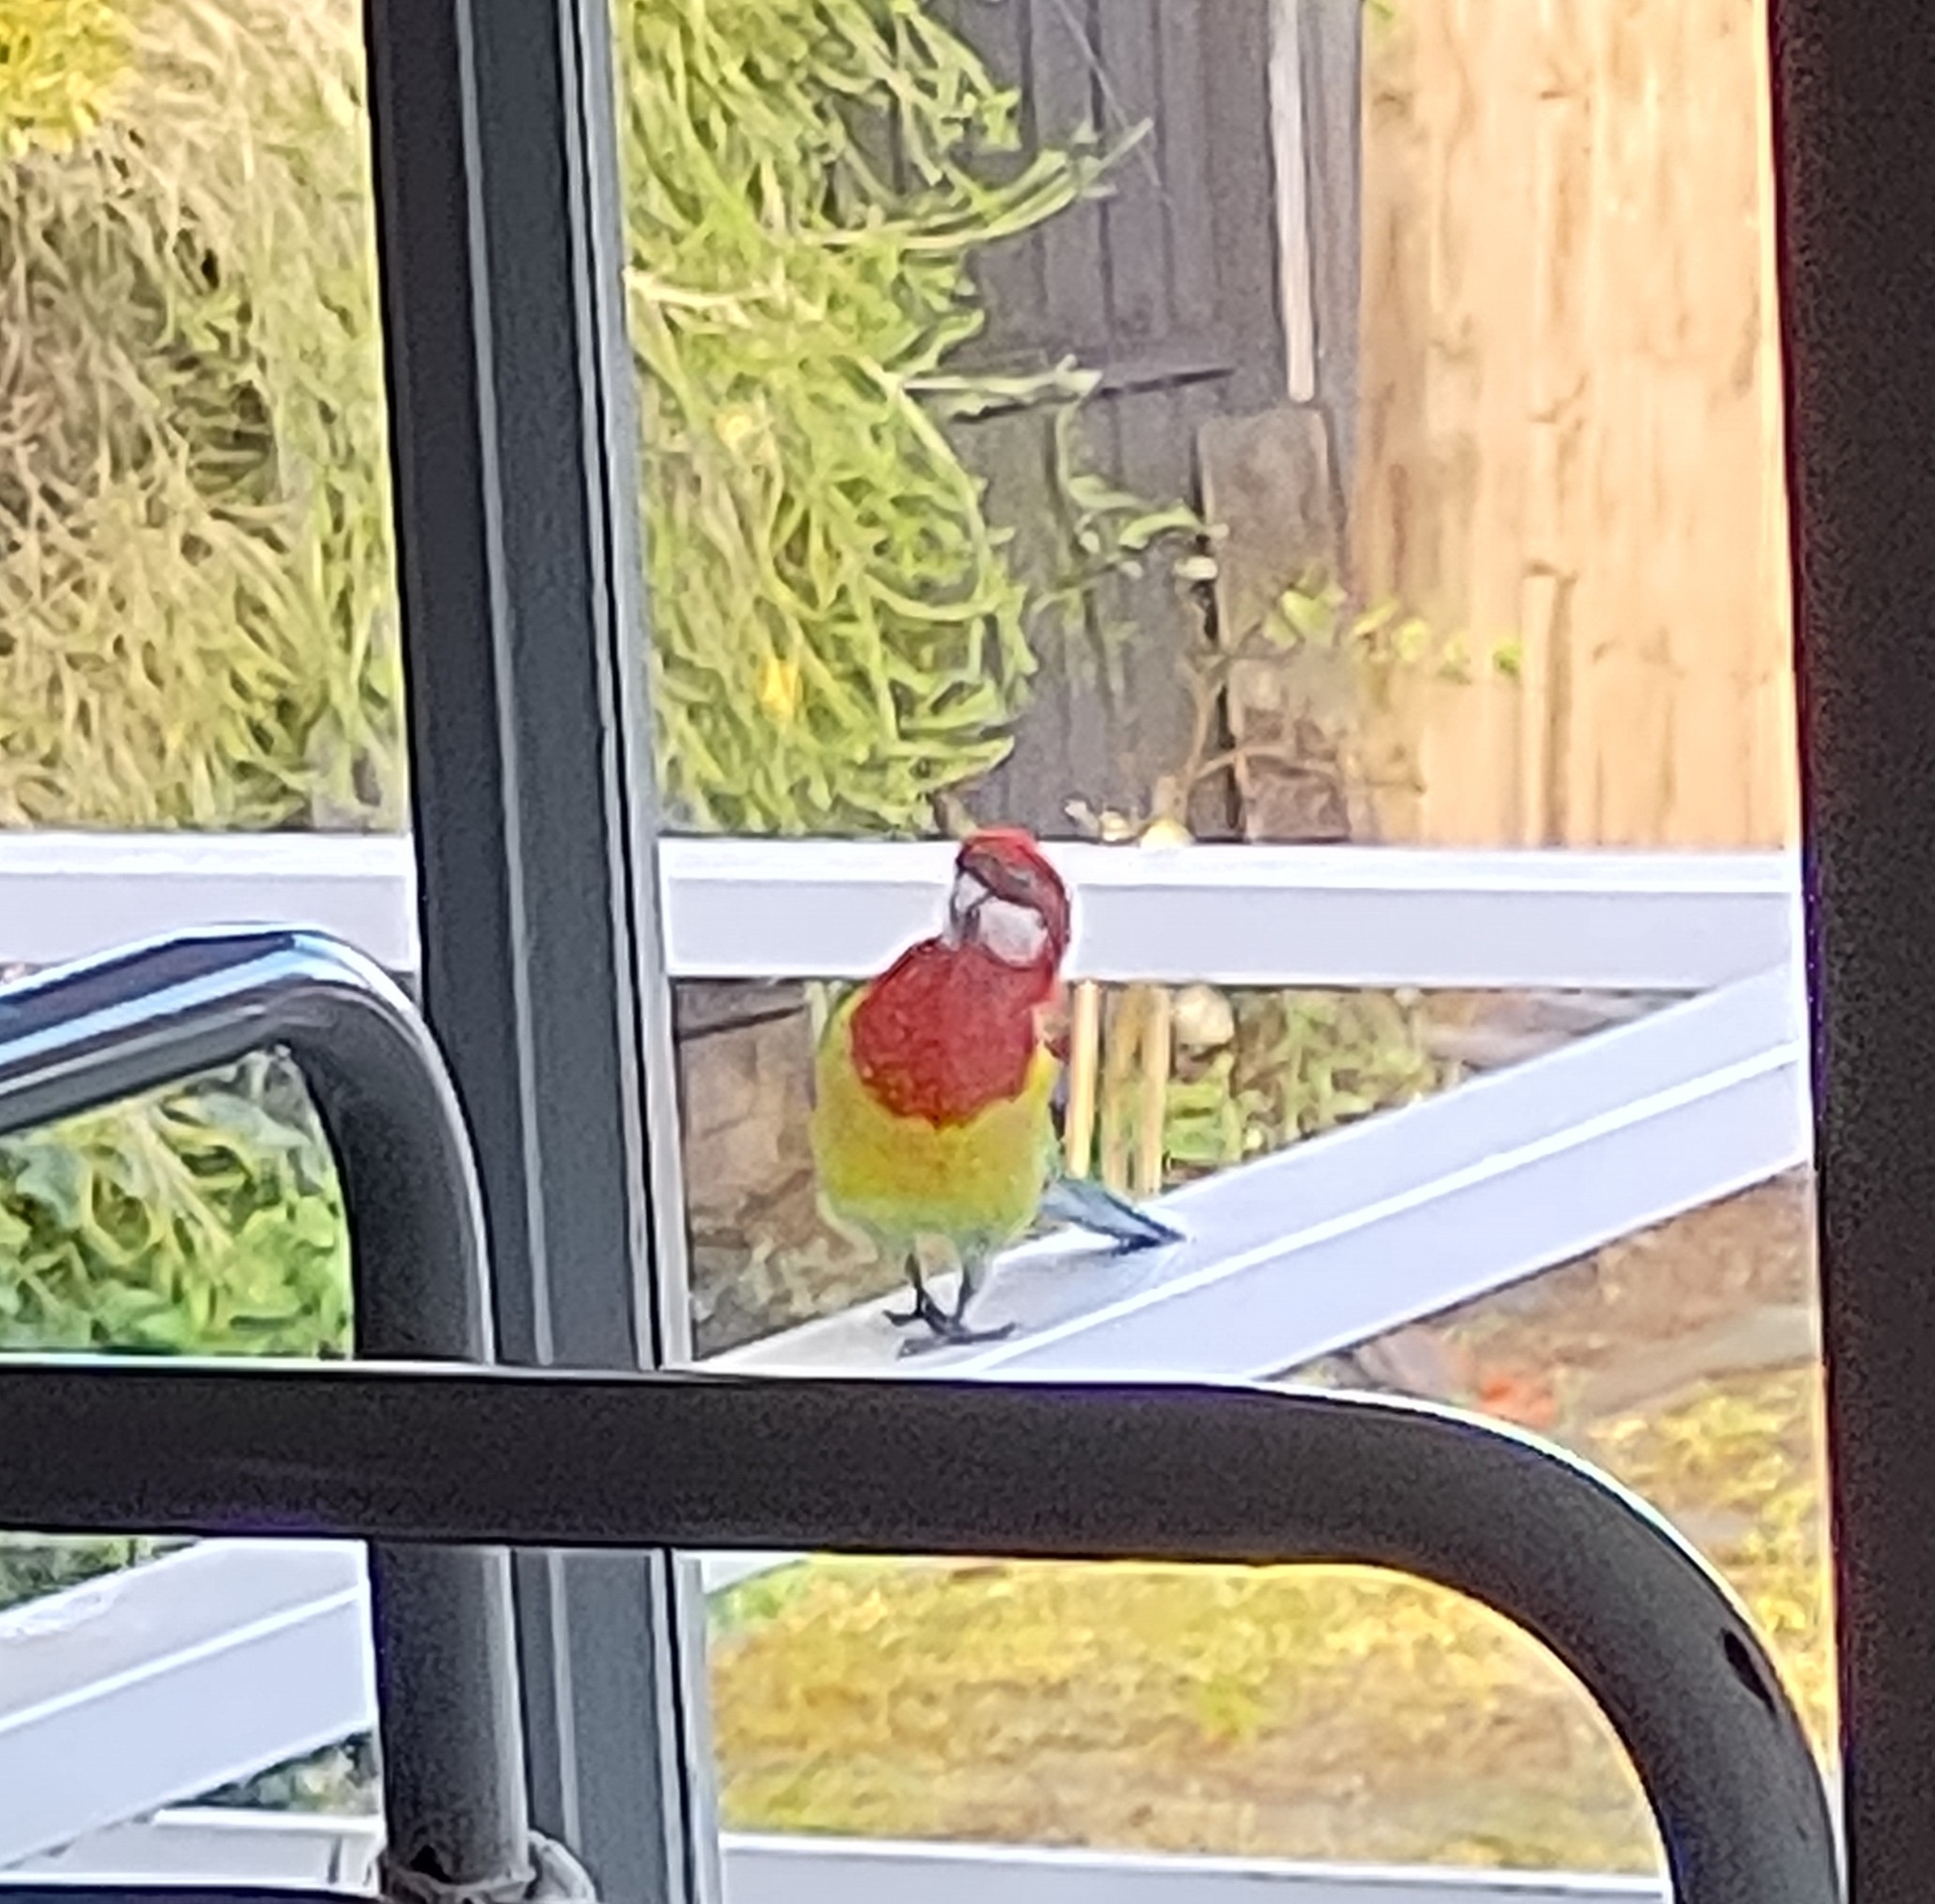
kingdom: Animalia
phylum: Chordata
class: Aves
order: Psittaciformes
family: Psittacidae
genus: Platycercus
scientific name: Platycercus eximius
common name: Eastern rosella
